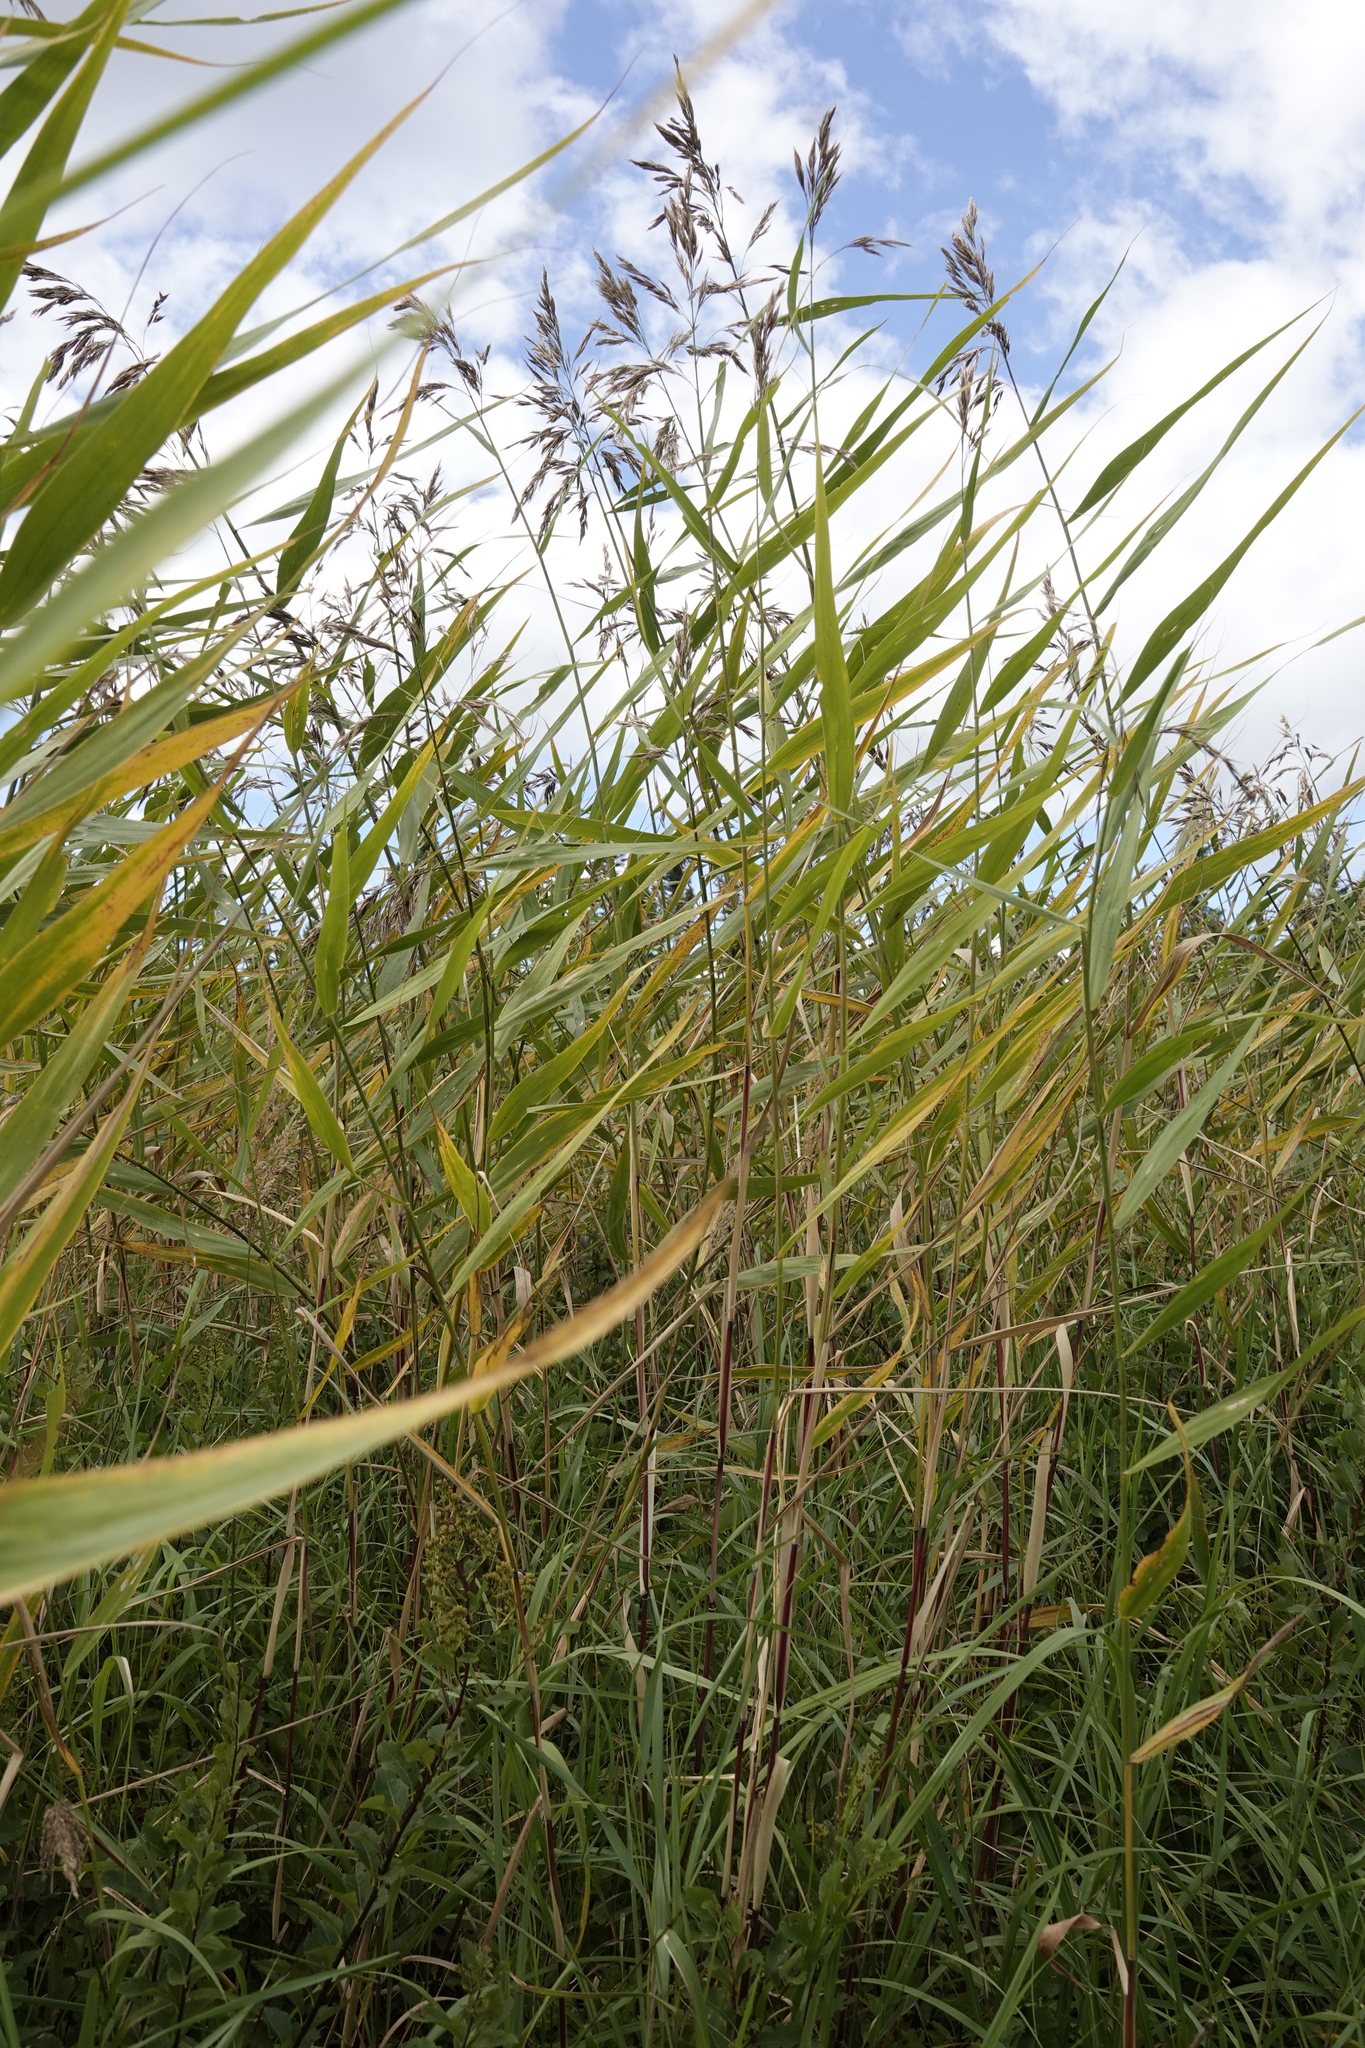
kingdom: Plantae
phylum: Tracheophyta
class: Liliopsida
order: Poales
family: Poaceae
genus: Phragmites
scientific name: Phragmites australis
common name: Common reed
